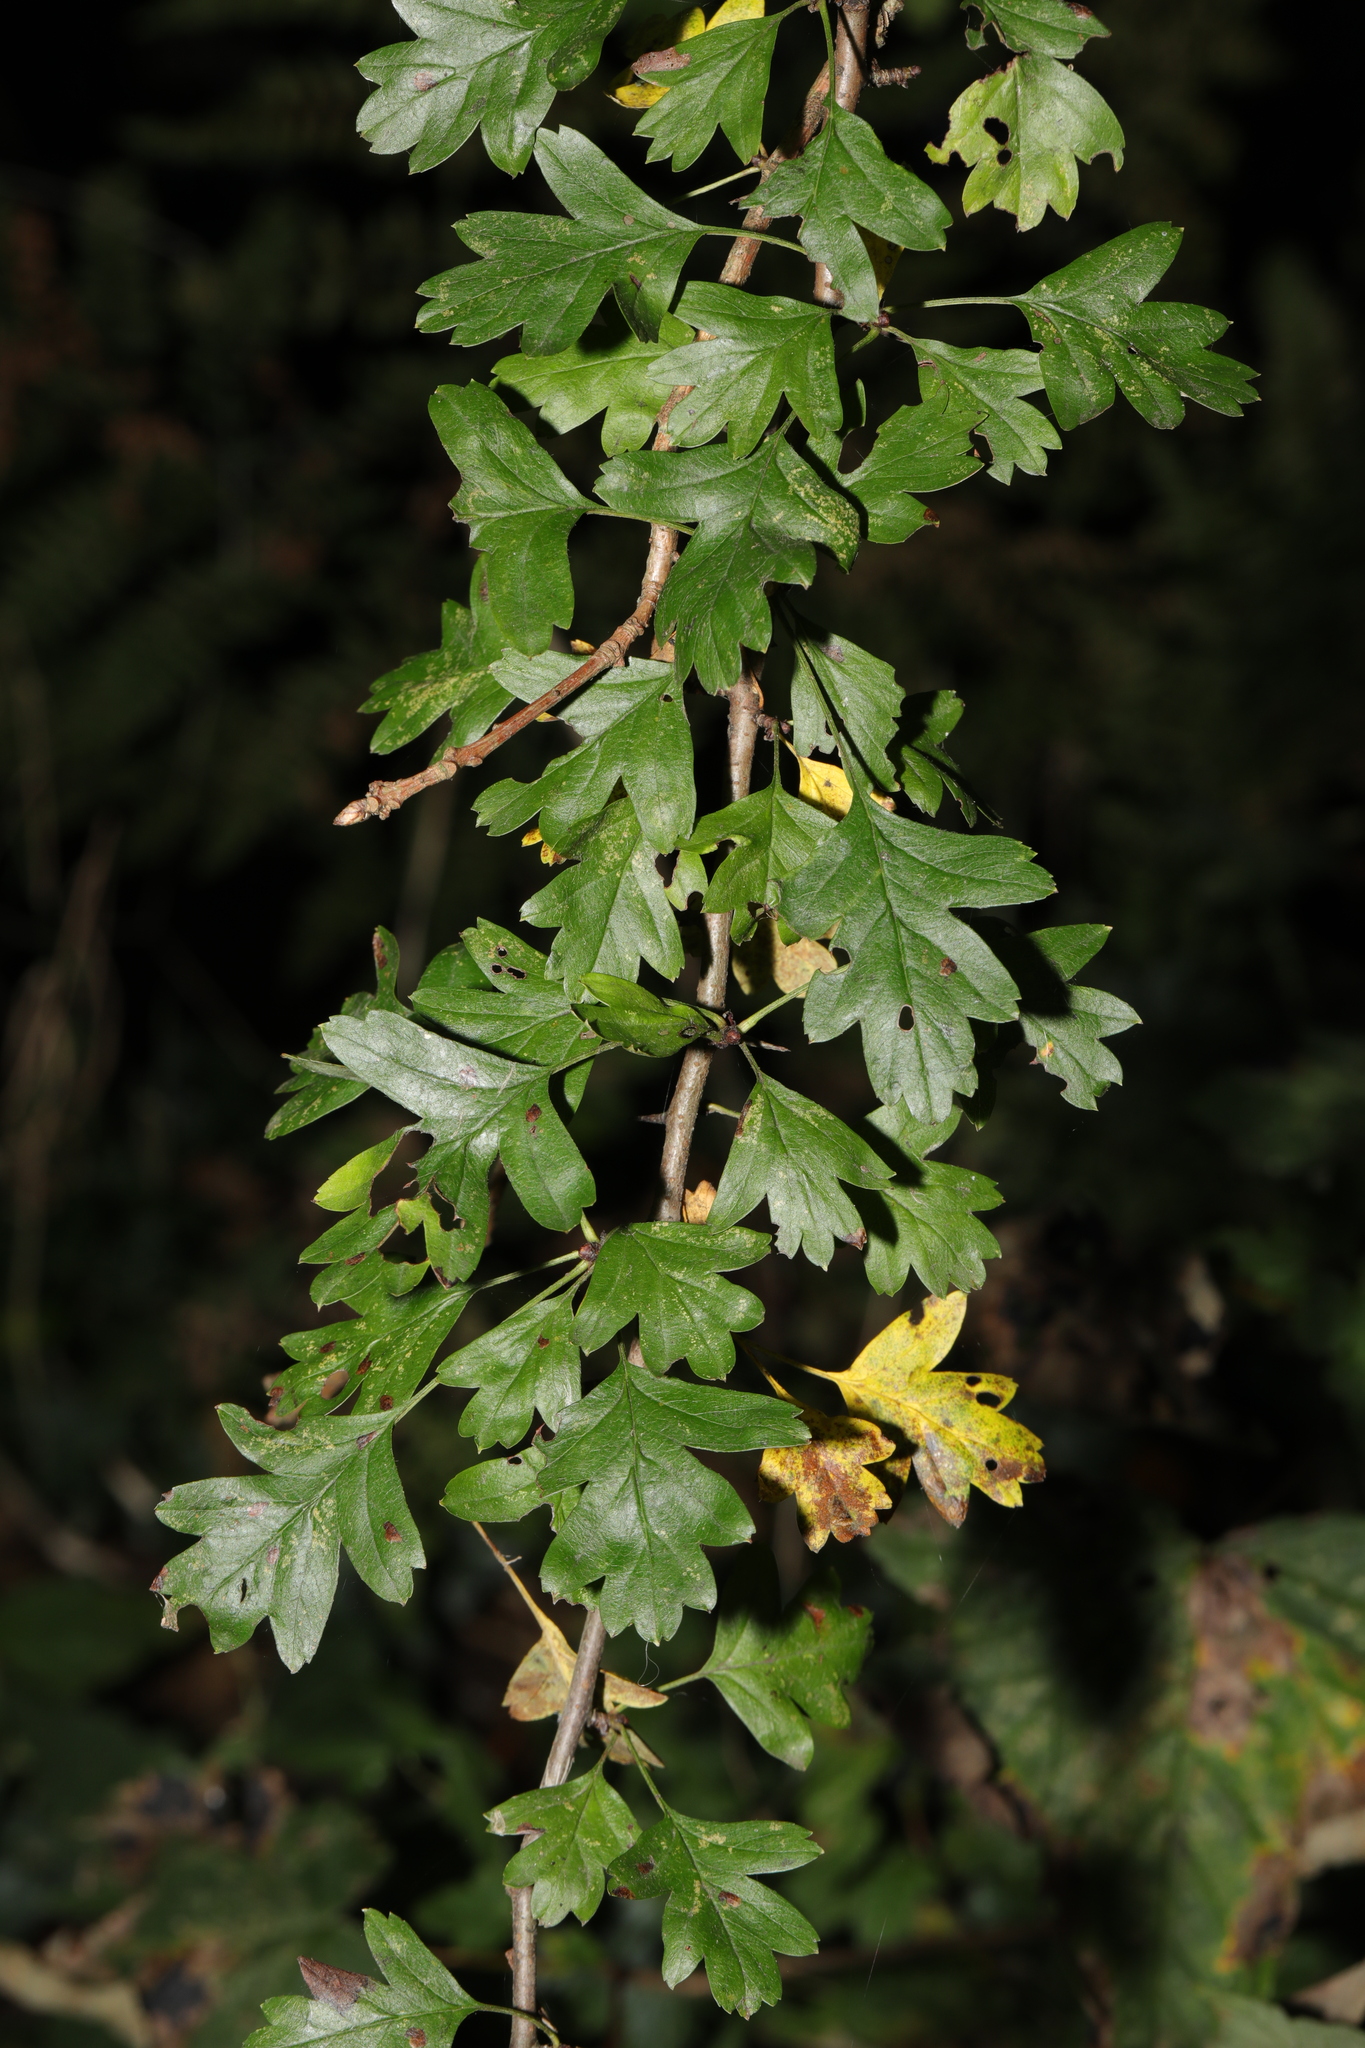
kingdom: Plantae
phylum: Tracheophyta
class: Magnoliopsida
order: Rosales
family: Rosaceae
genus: Crataegus
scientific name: Crataegus monogyna
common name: Hawthorn
